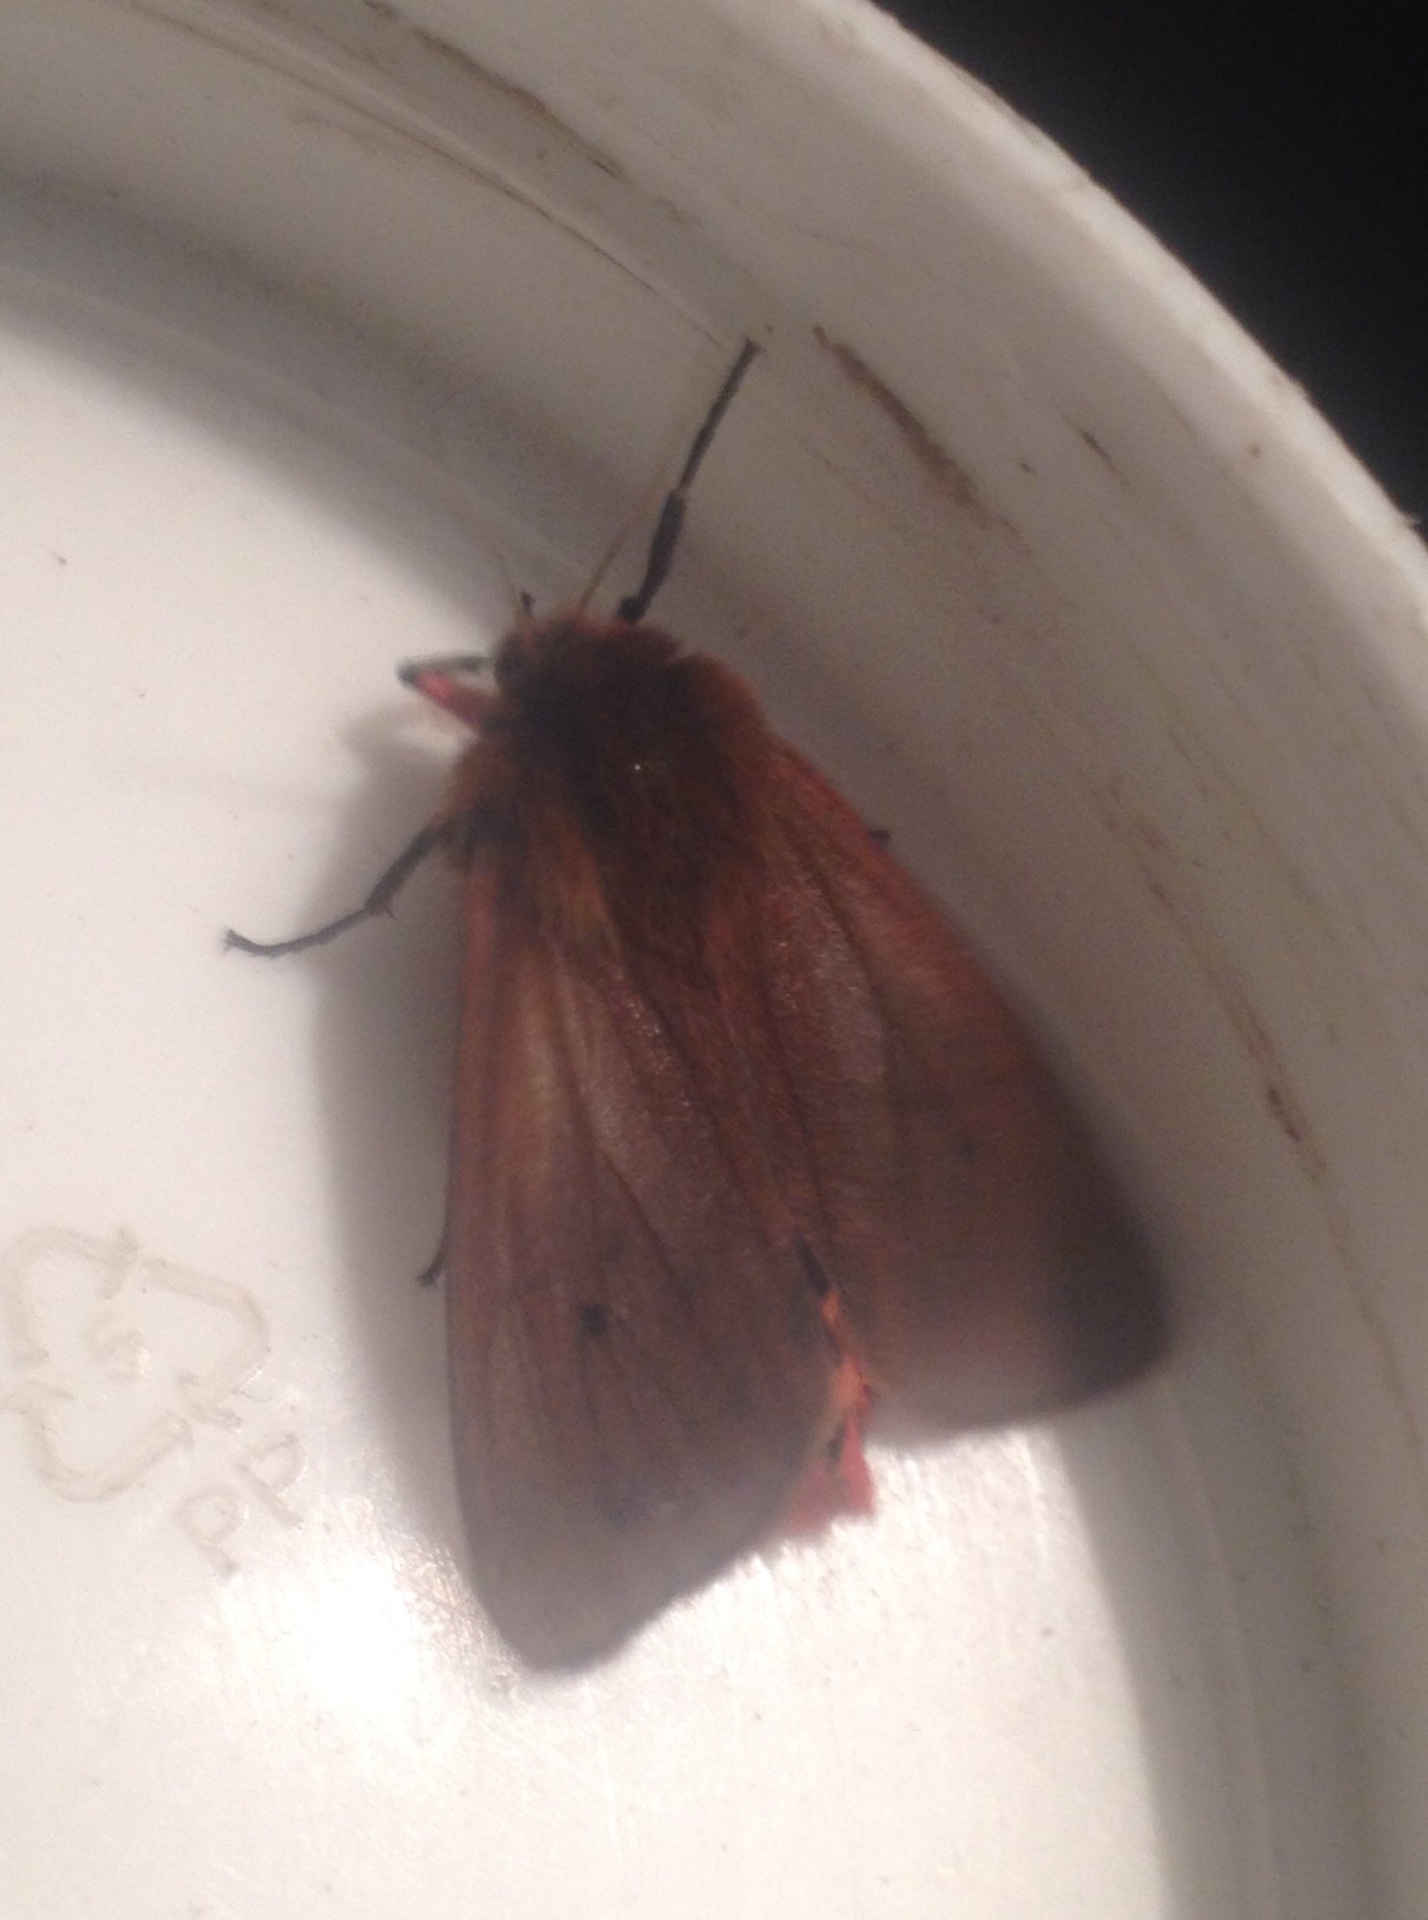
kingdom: Animalia
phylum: Arthropoda
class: Insecta
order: Lepidoptera
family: Erebidae
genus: Phragmatobia
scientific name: Phragmatobia fuliginosa
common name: Ruby tiger
